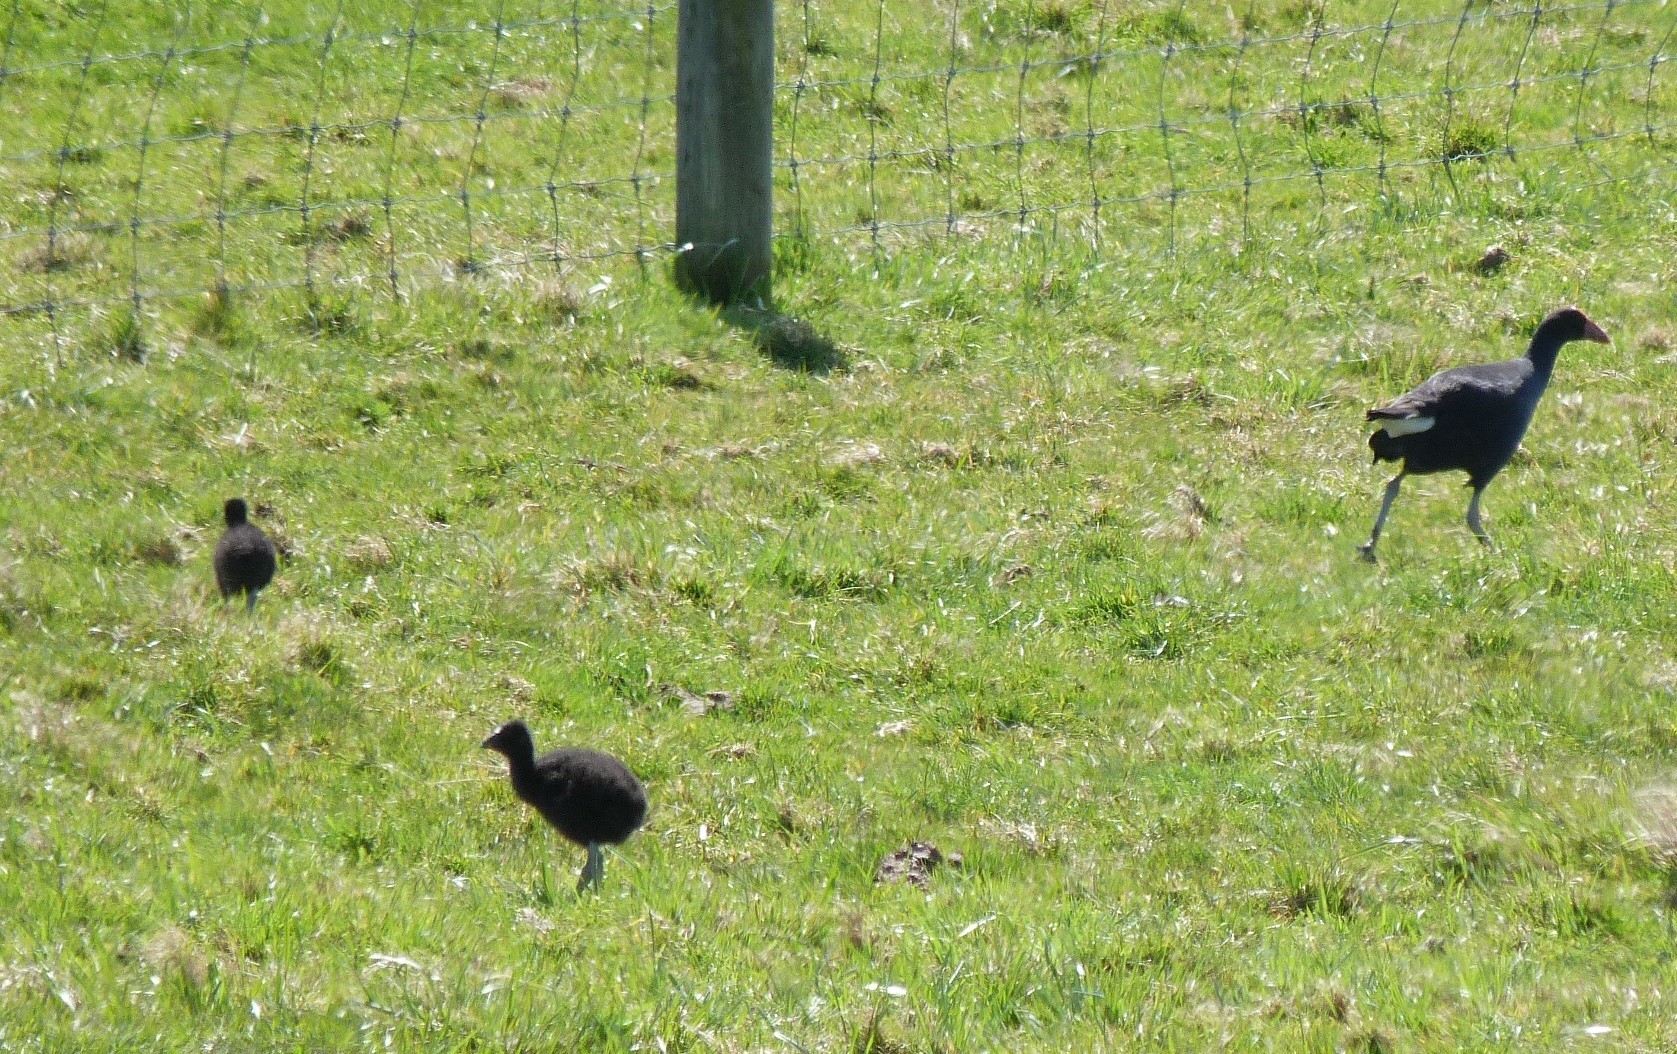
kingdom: Animalia
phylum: Chordata
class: Aves
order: Gruiformes
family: Rallidae
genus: Porphyrio
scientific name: Porphyrio melanotus
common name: Australasian swamphen
